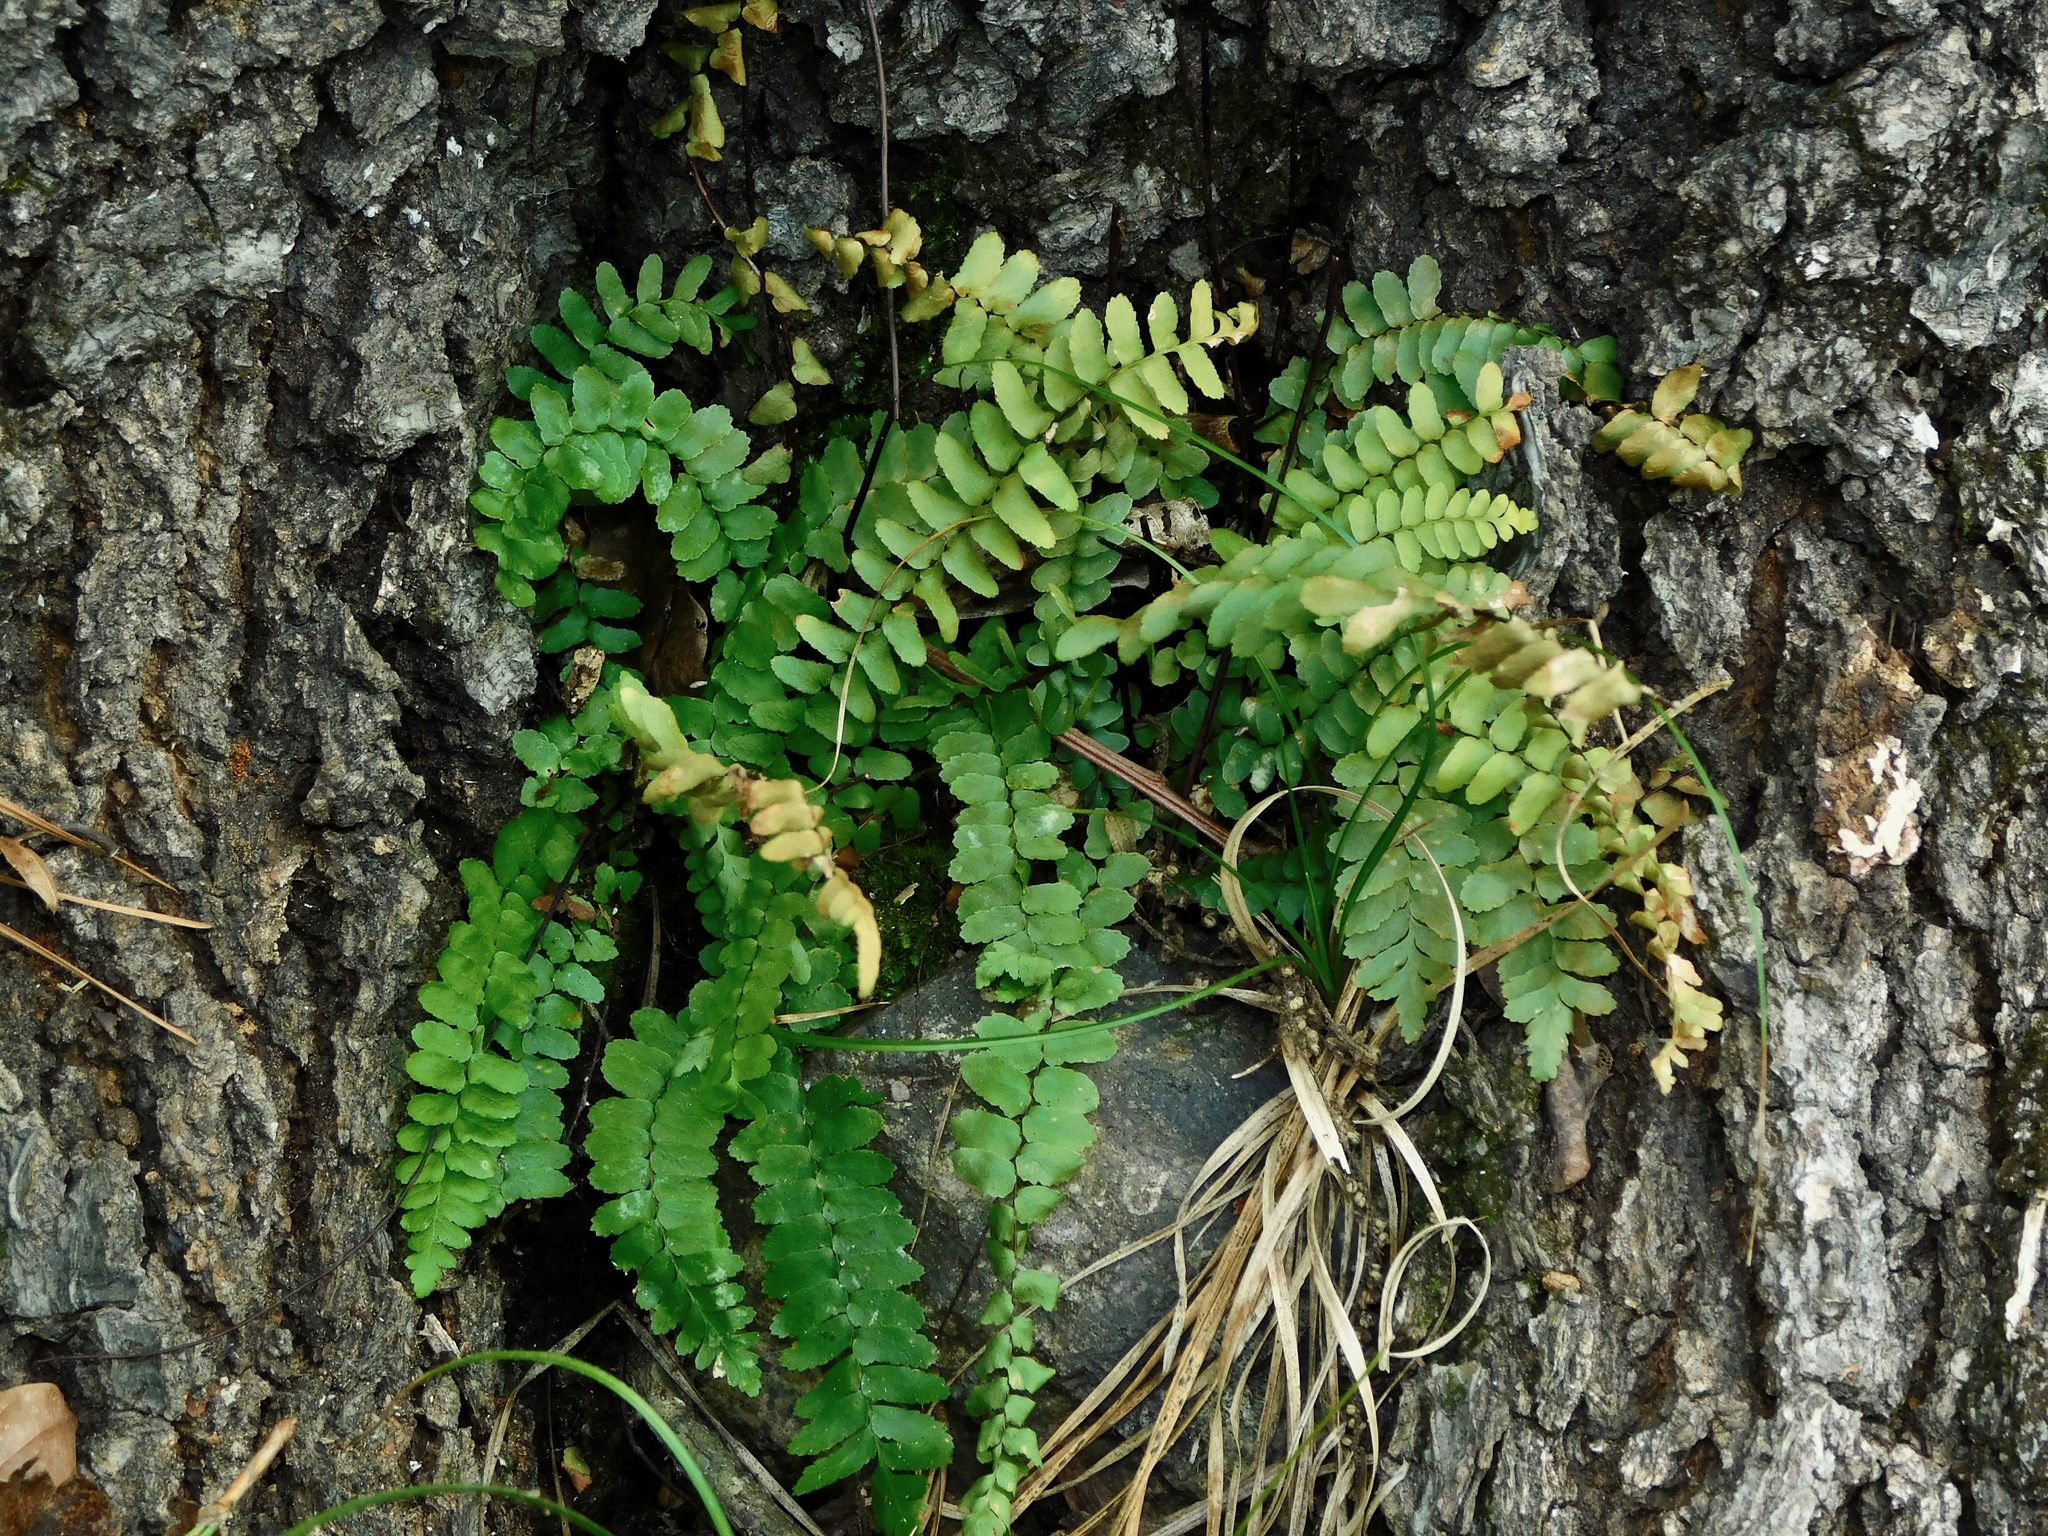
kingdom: Plantae
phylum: Tracheophyta
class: Polypodiopsida
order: Polypodiales
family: Aspleniaceae
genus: Asplenium
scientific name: Asplenium platyneuron
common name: Ebony spleenwort
